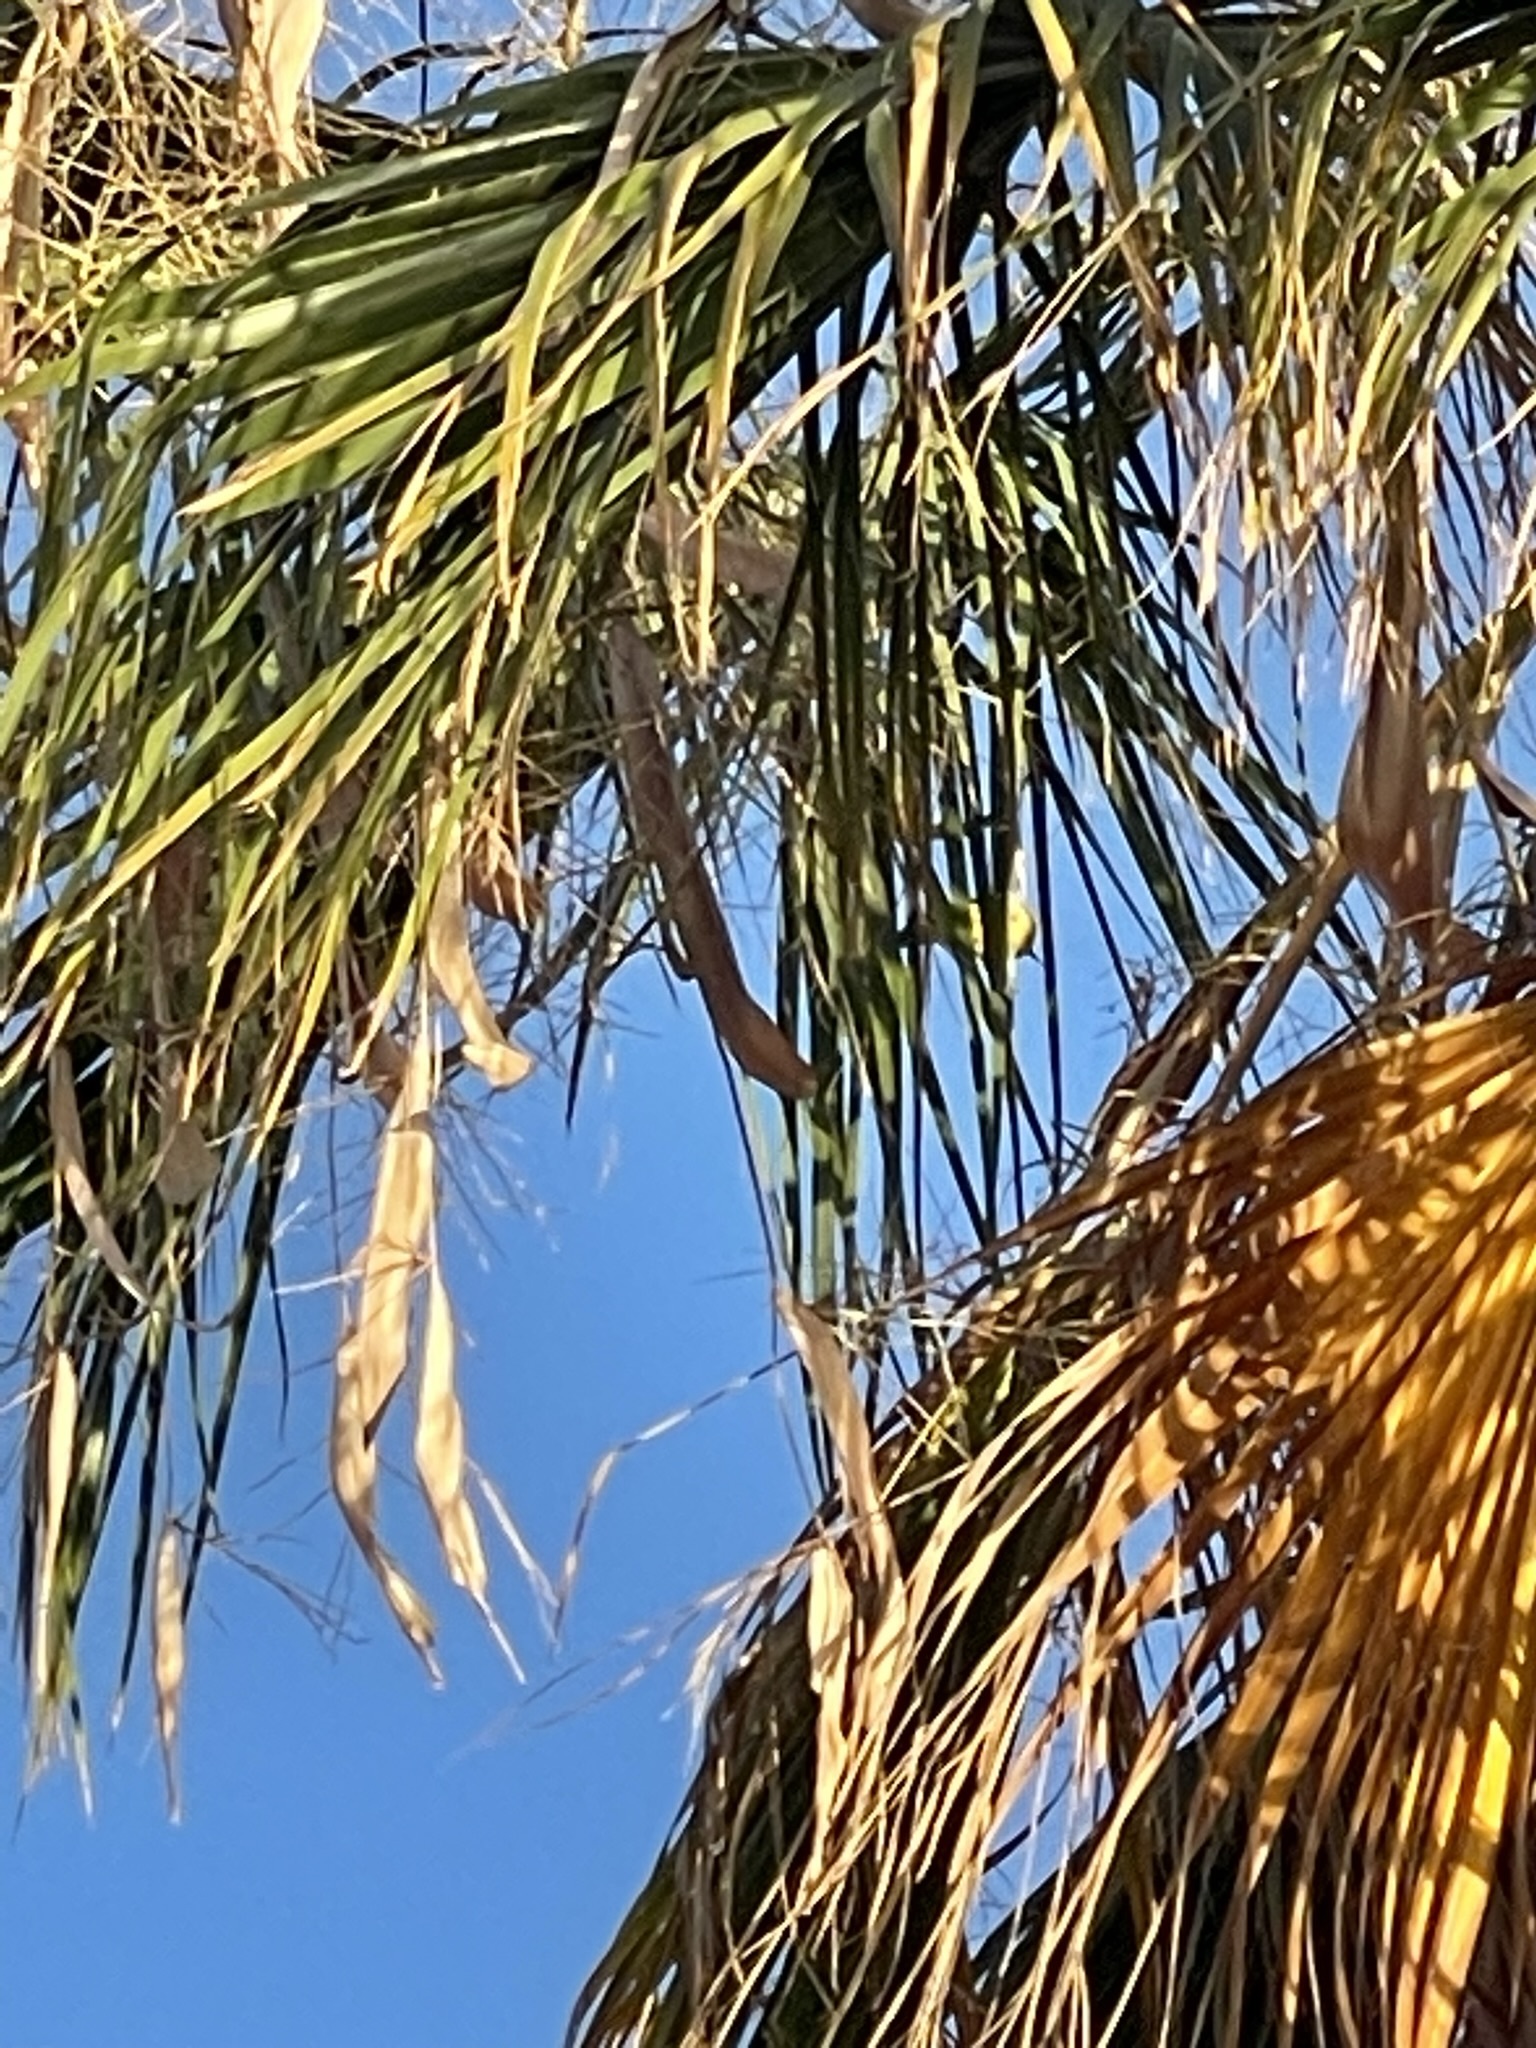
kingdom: Animalia
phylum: Chordata
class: Aves
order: Passeriformes
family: Icteridae
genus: Icterus
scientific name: Icterus cucullatus
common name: Hooded oriole
